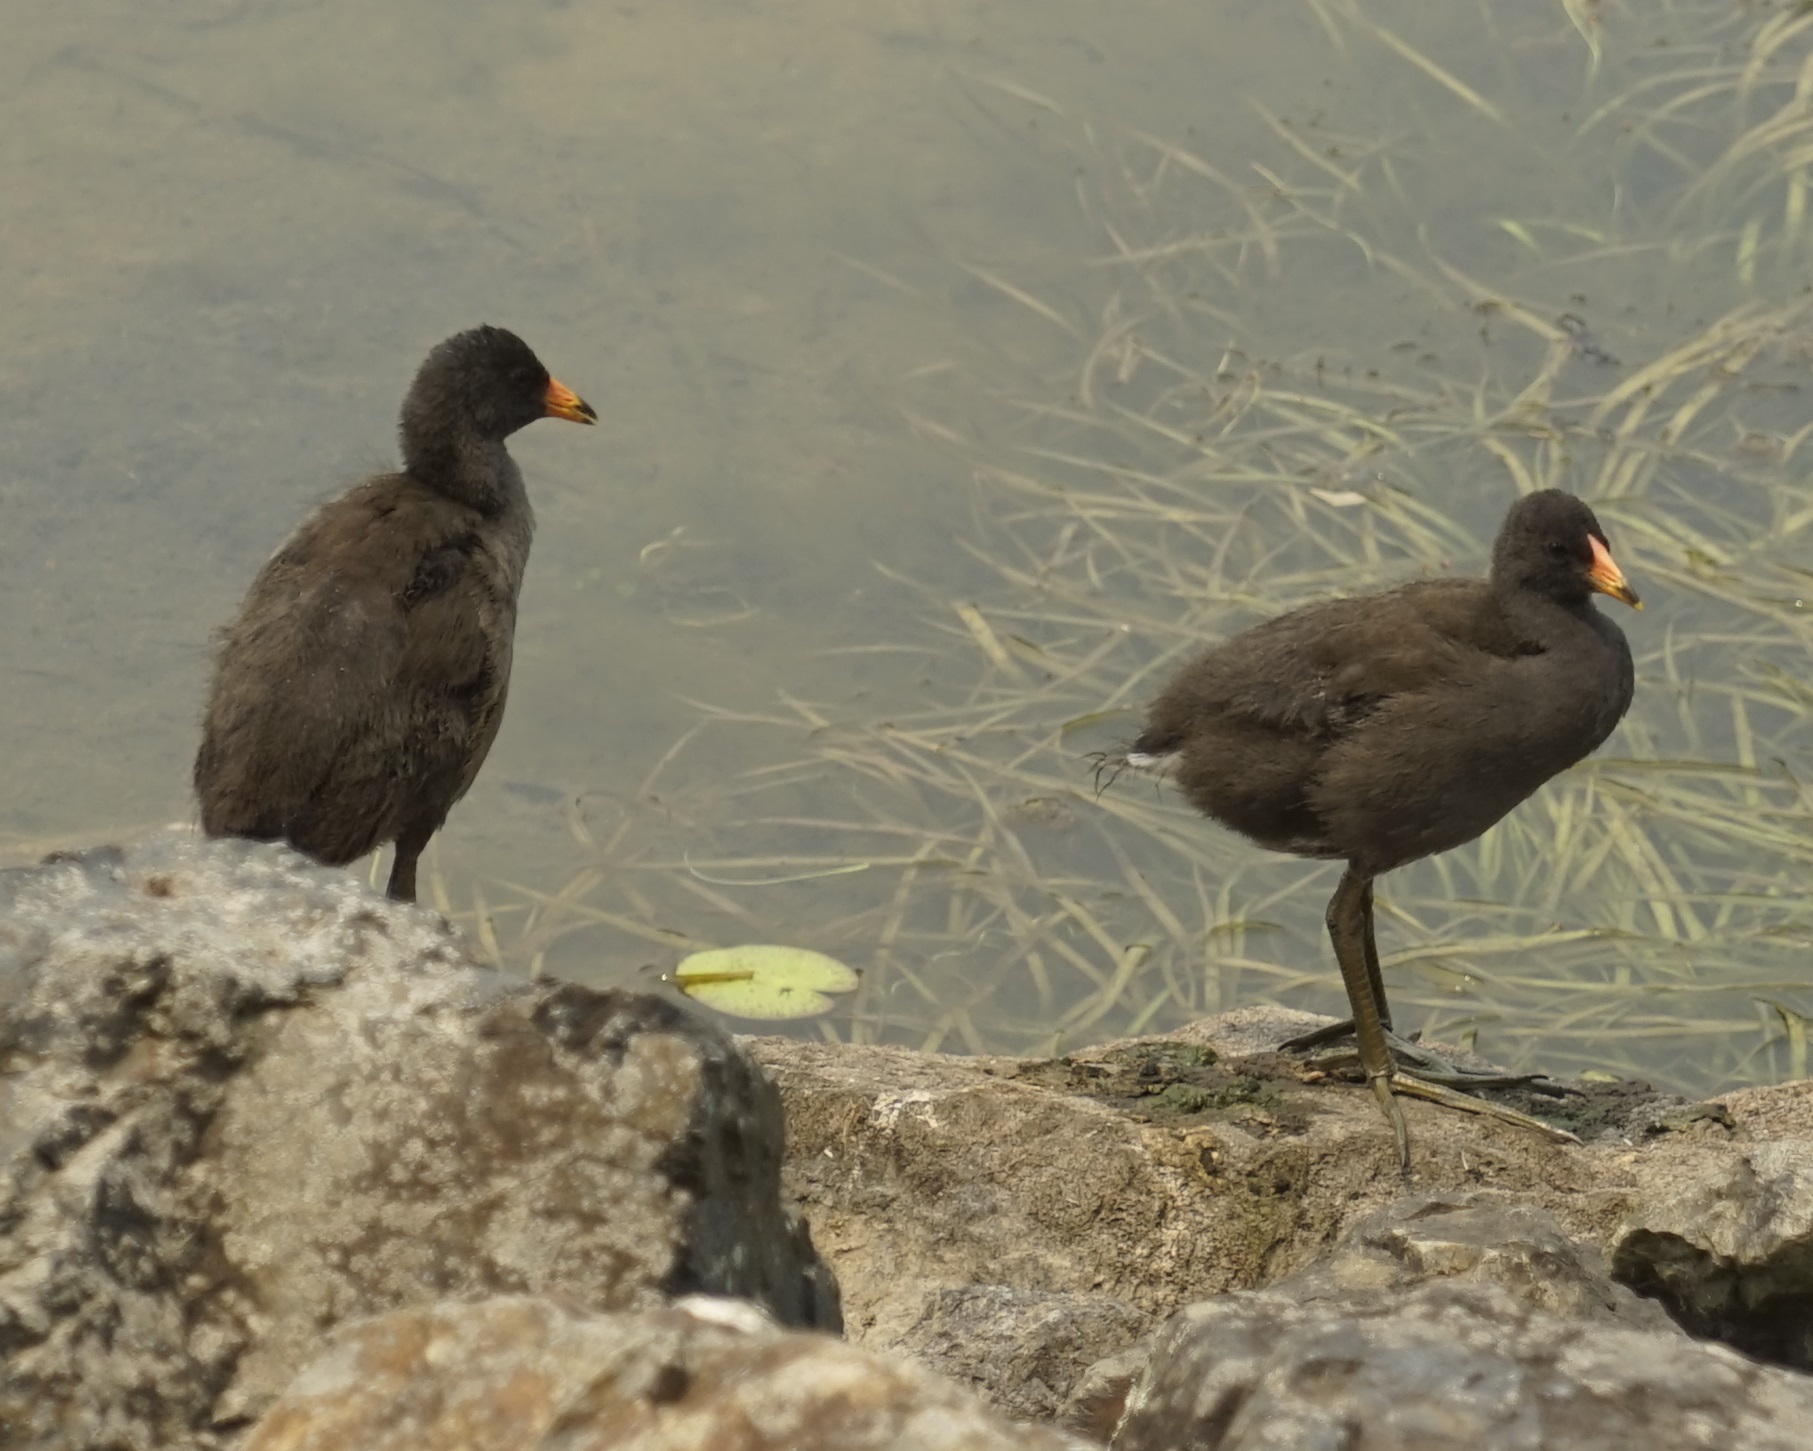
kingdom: Animalia
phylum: Chordata
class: Aves
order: Gruiformes
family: Rallidae
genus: Gallinula
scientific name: Gallinula tenebrosa
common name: Dusky moorhen
